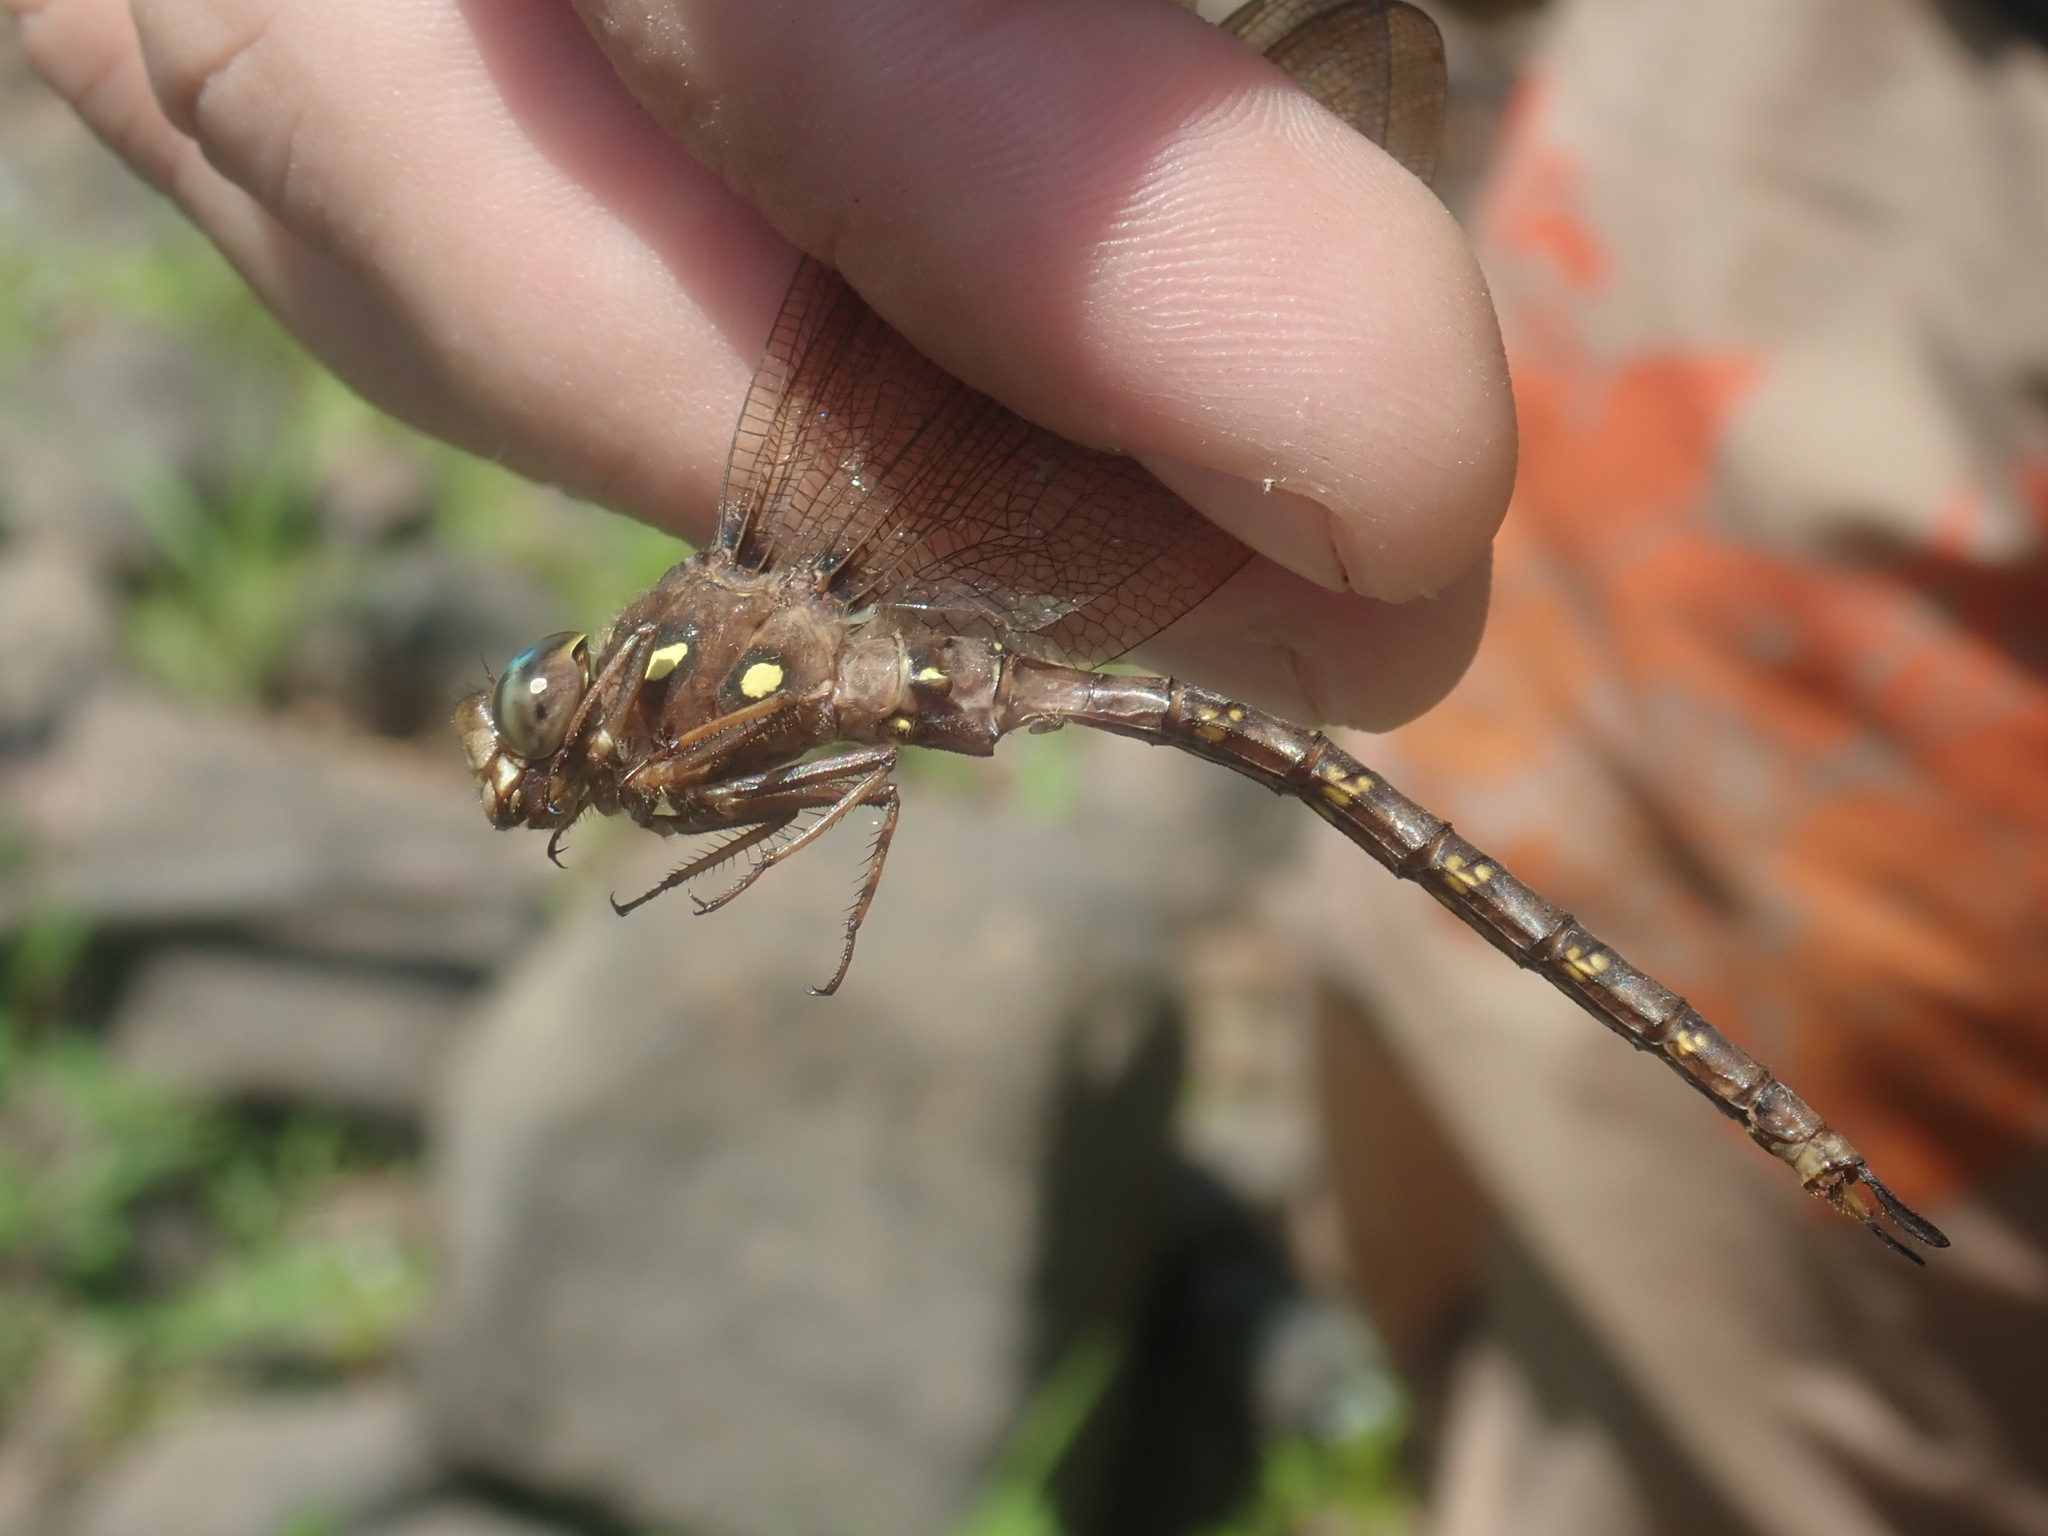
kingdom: Animalia
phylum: Arthropoda
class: Insecta
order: Odonata
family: Aeshnidae
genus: Boyeria
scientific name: Boyeria vinosa
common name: Fawn darner
